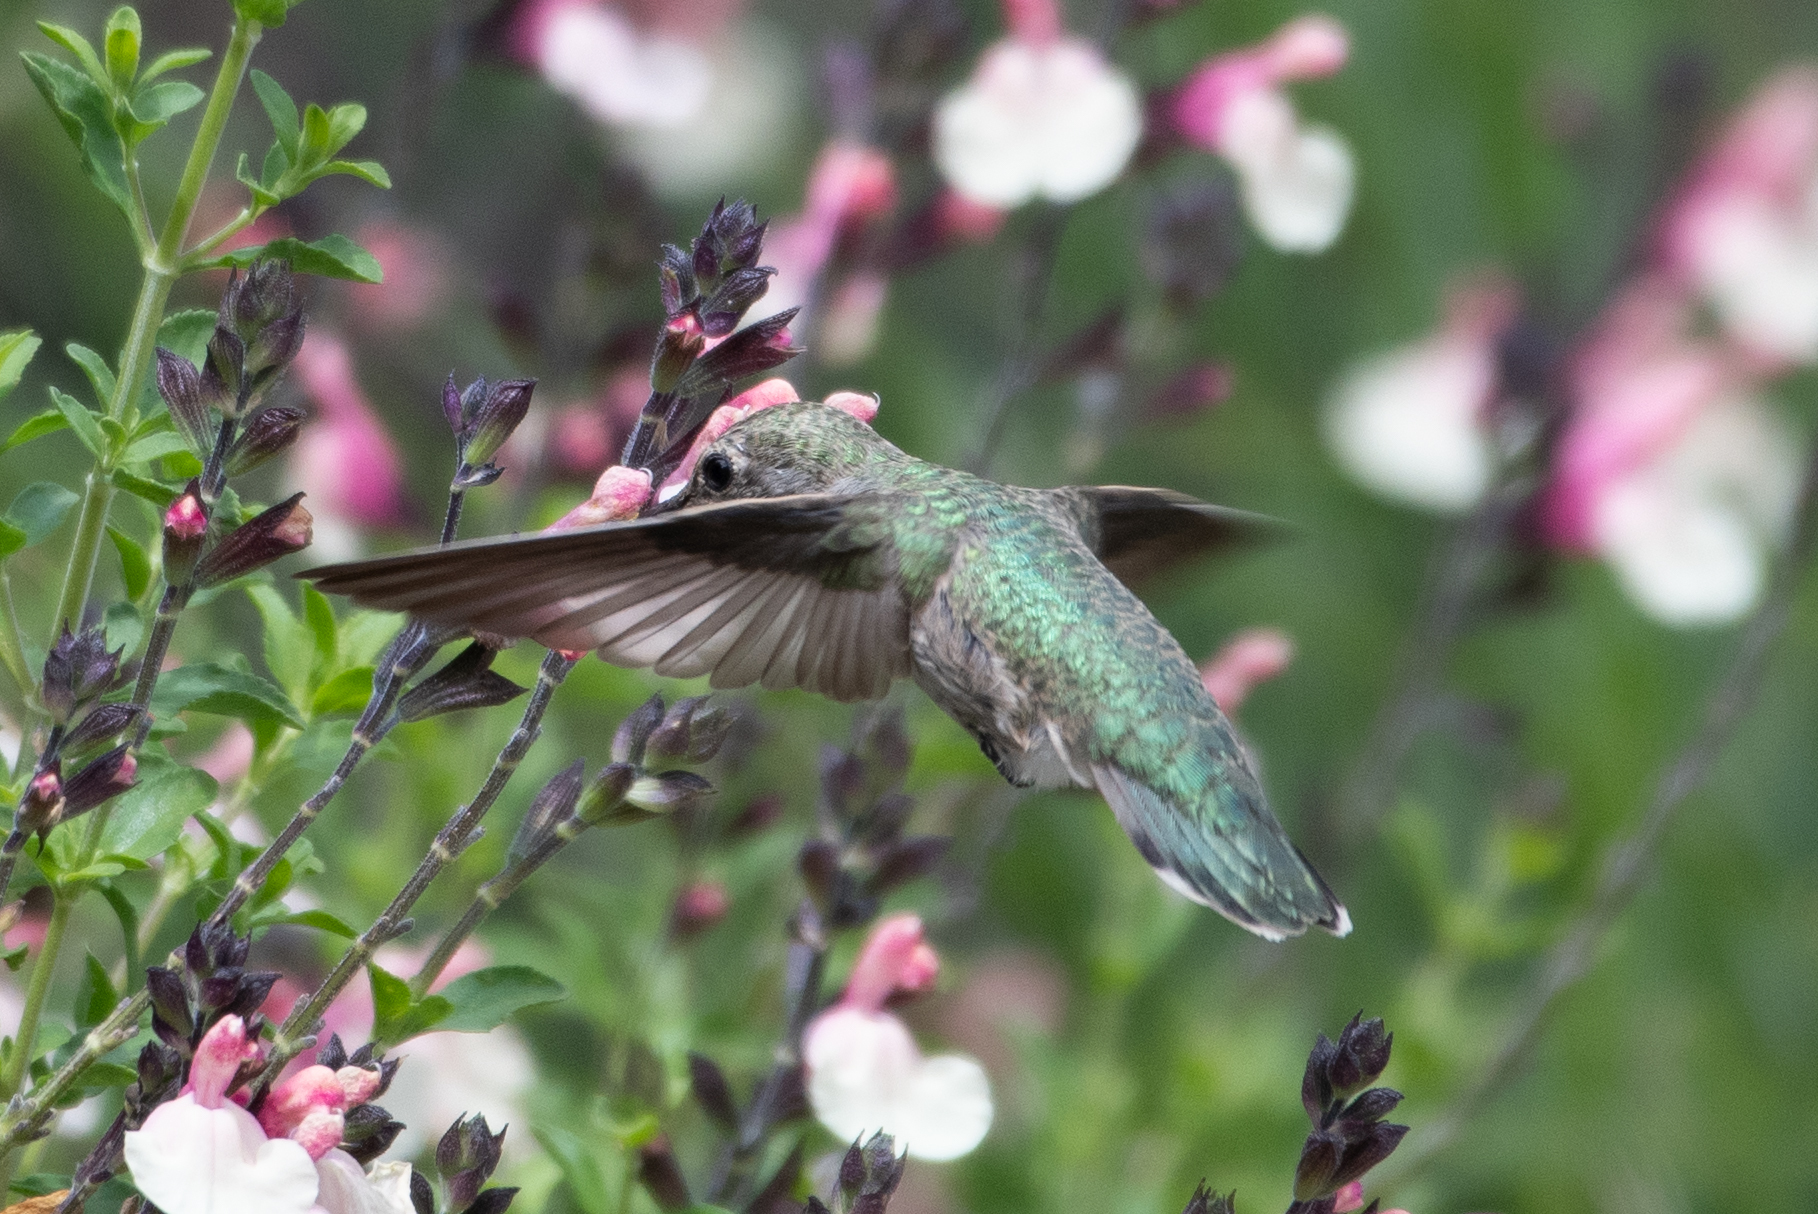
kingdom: Animalia
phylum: Chordata
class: Aves
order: Apodiformes
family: Trochilidae
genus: Calypte
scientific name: Calypte anna
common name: Anna's hummingbird
